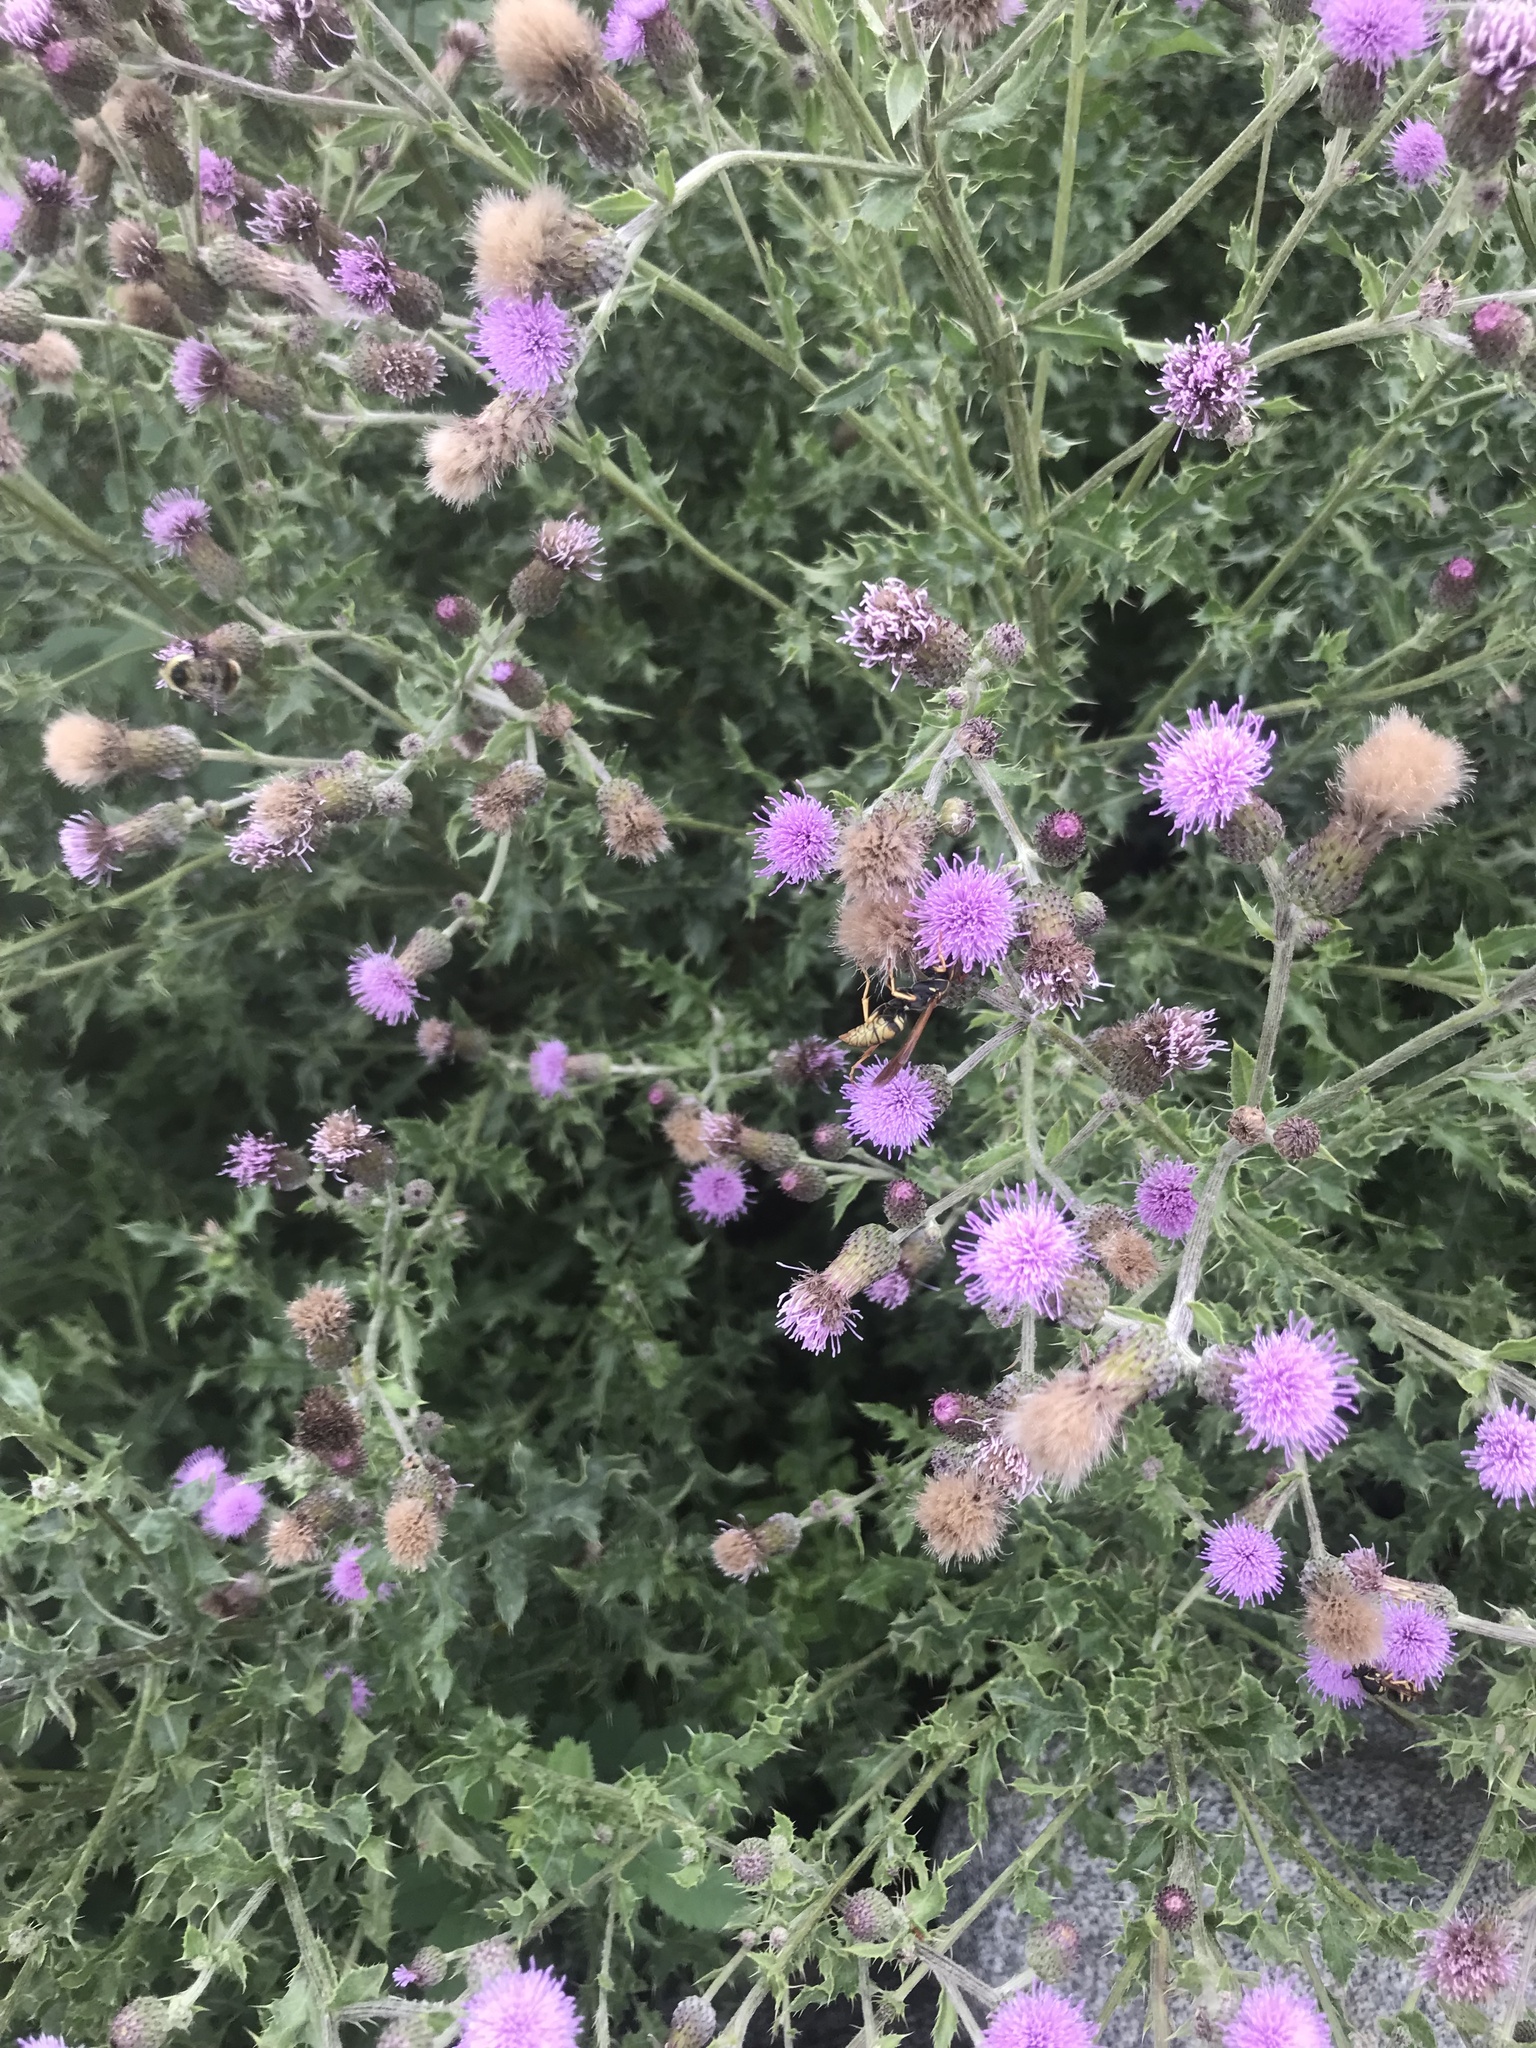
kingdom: Animalia
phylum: Arthropoda
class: Insecta
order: Hymenoptera
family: Eumenidae
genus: Polistes
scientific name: Polistes aurifer
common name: Paper wasp
